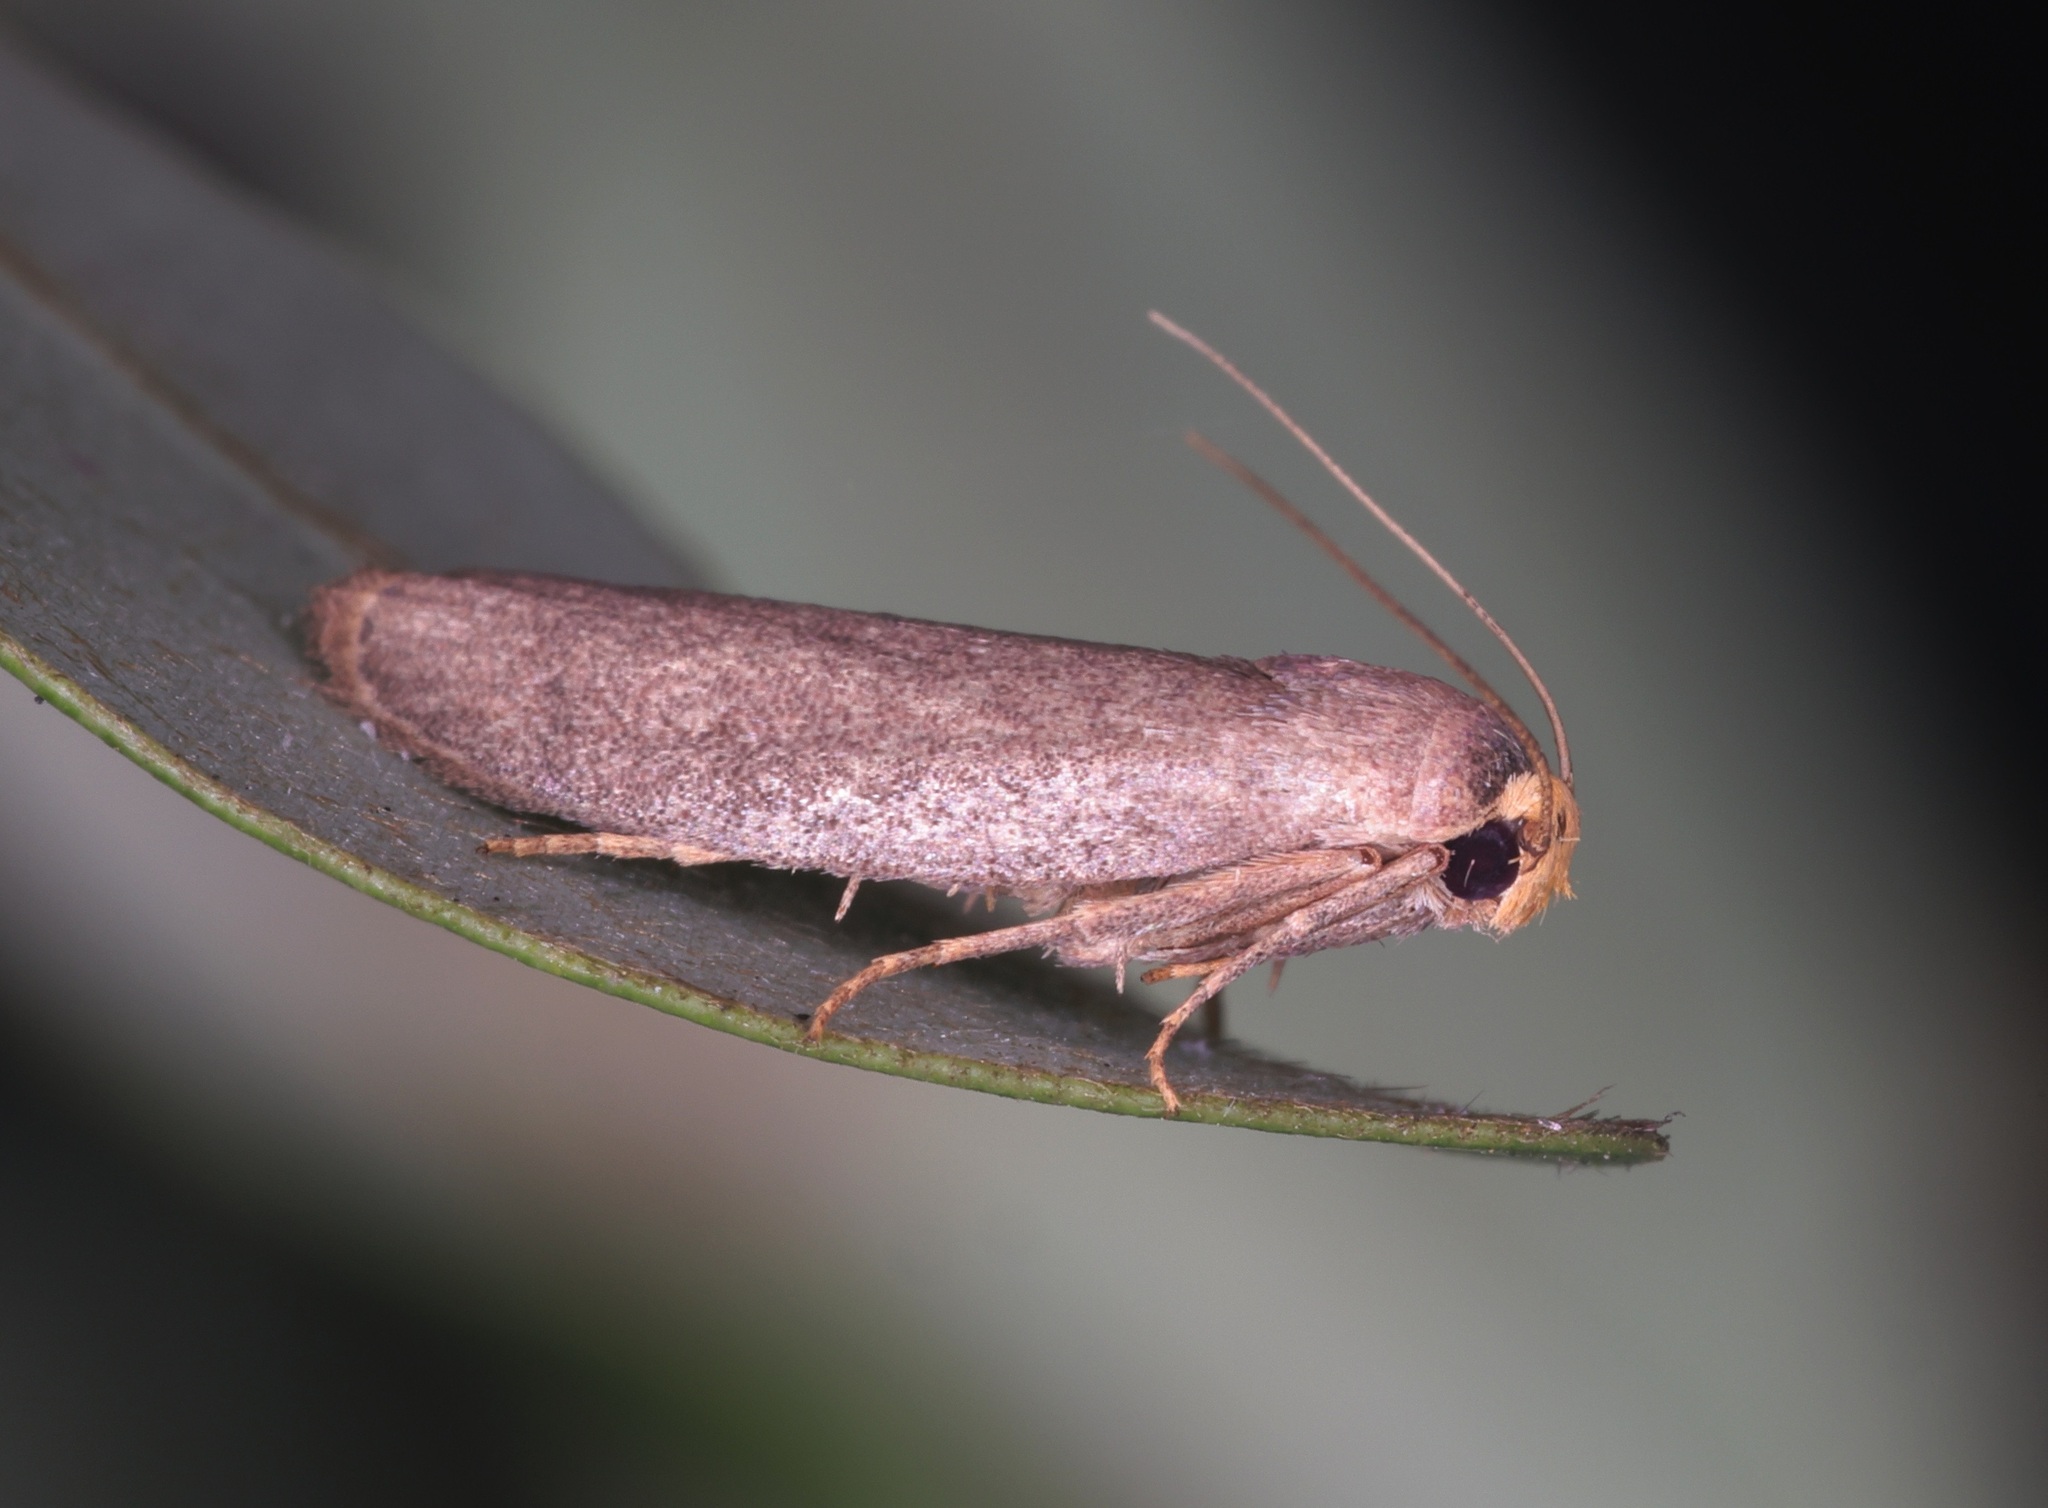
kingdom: Animalia
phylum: Arthropoda
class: Insecta
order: Lepidoptera
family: Pyralidae
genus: Achroia
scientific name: Achroia innotata
